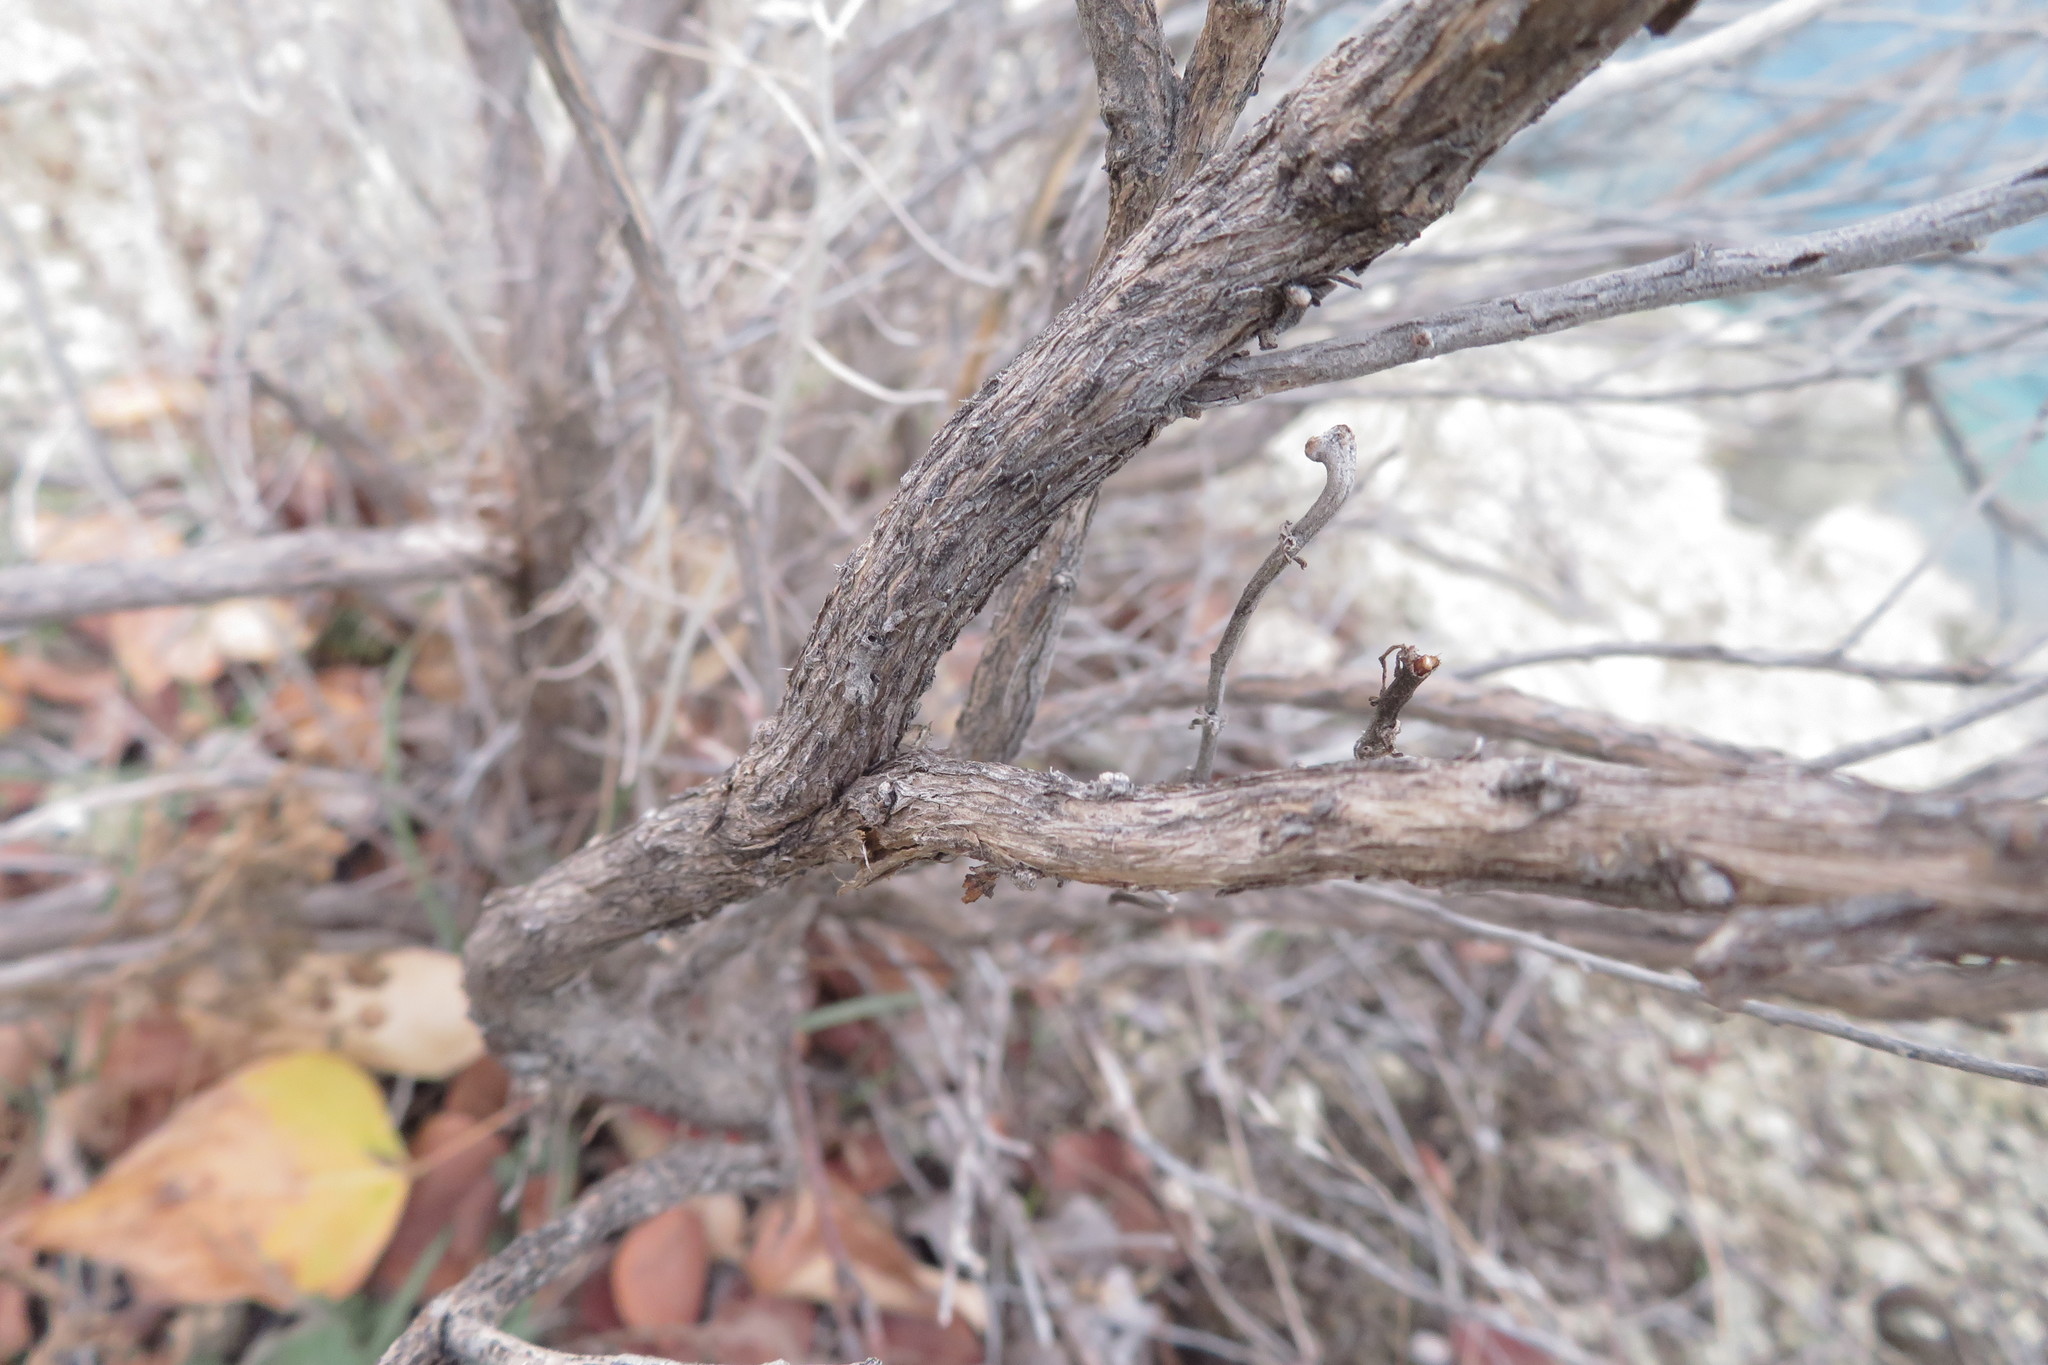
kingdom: Plantae
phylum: Tracheophyta
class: Magnoliopsida
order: Asterales
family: Asteraceae
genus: Ericameria
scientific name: Ericameria nauseosa
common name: Rubber rabbitbrush
